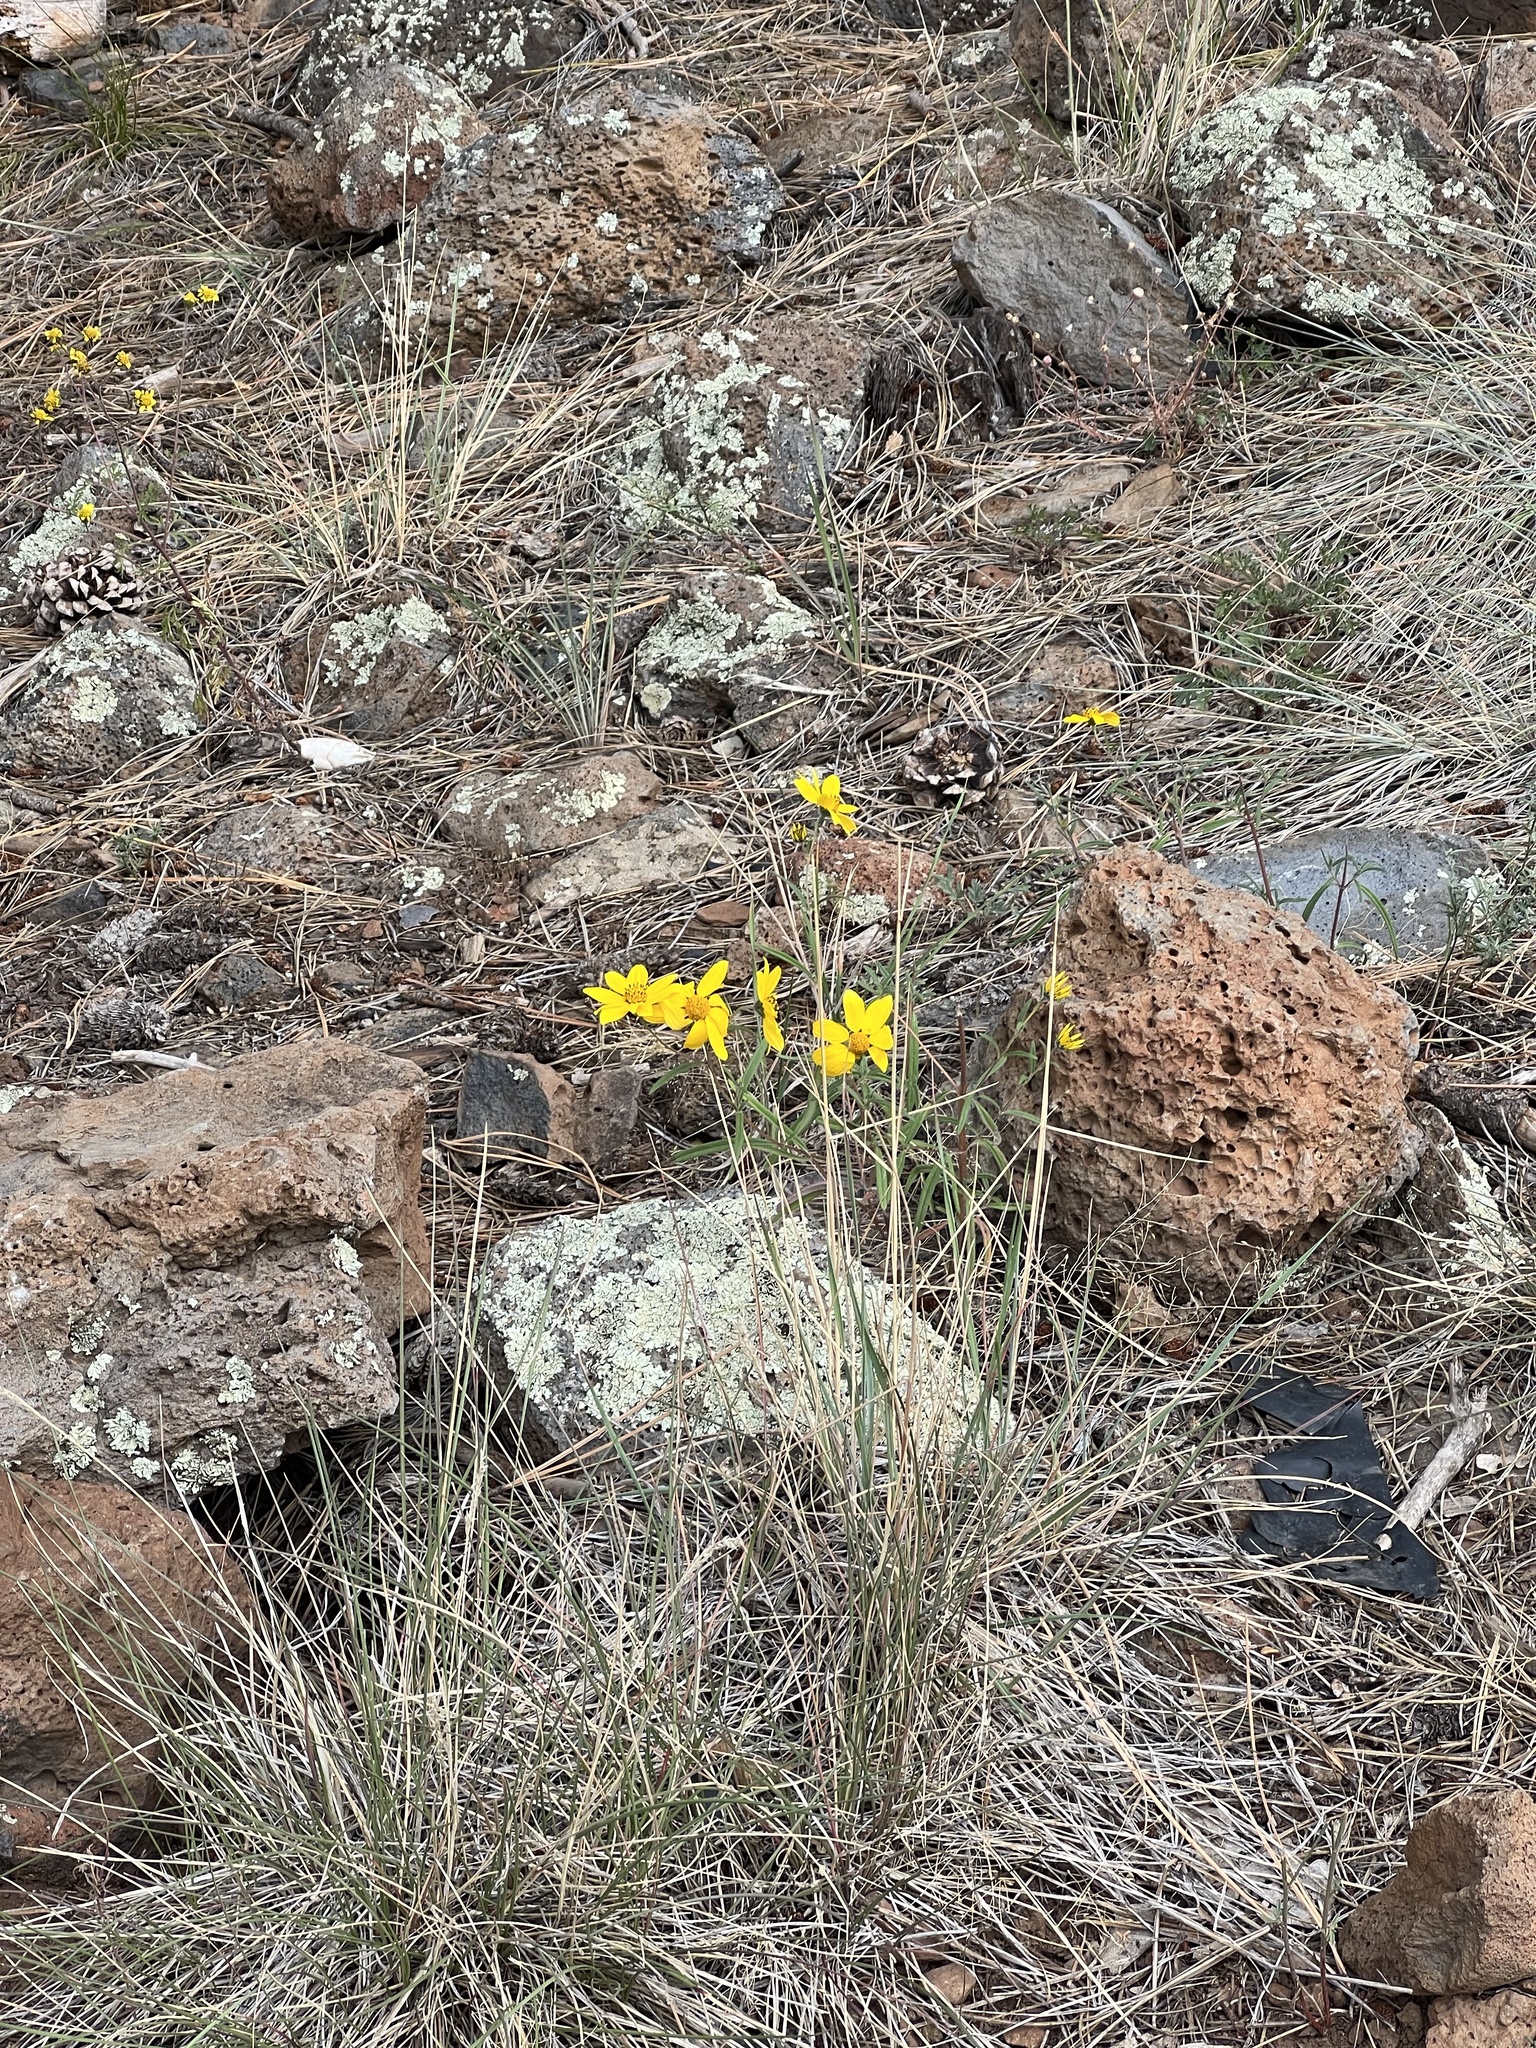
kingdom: Plantae
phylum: Tracheophyta
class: Magnoliopsida
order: Asterales
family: Asteraceae
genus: Heliomeris
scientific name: Heliomeris multiflora
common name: Showy goldeneye
